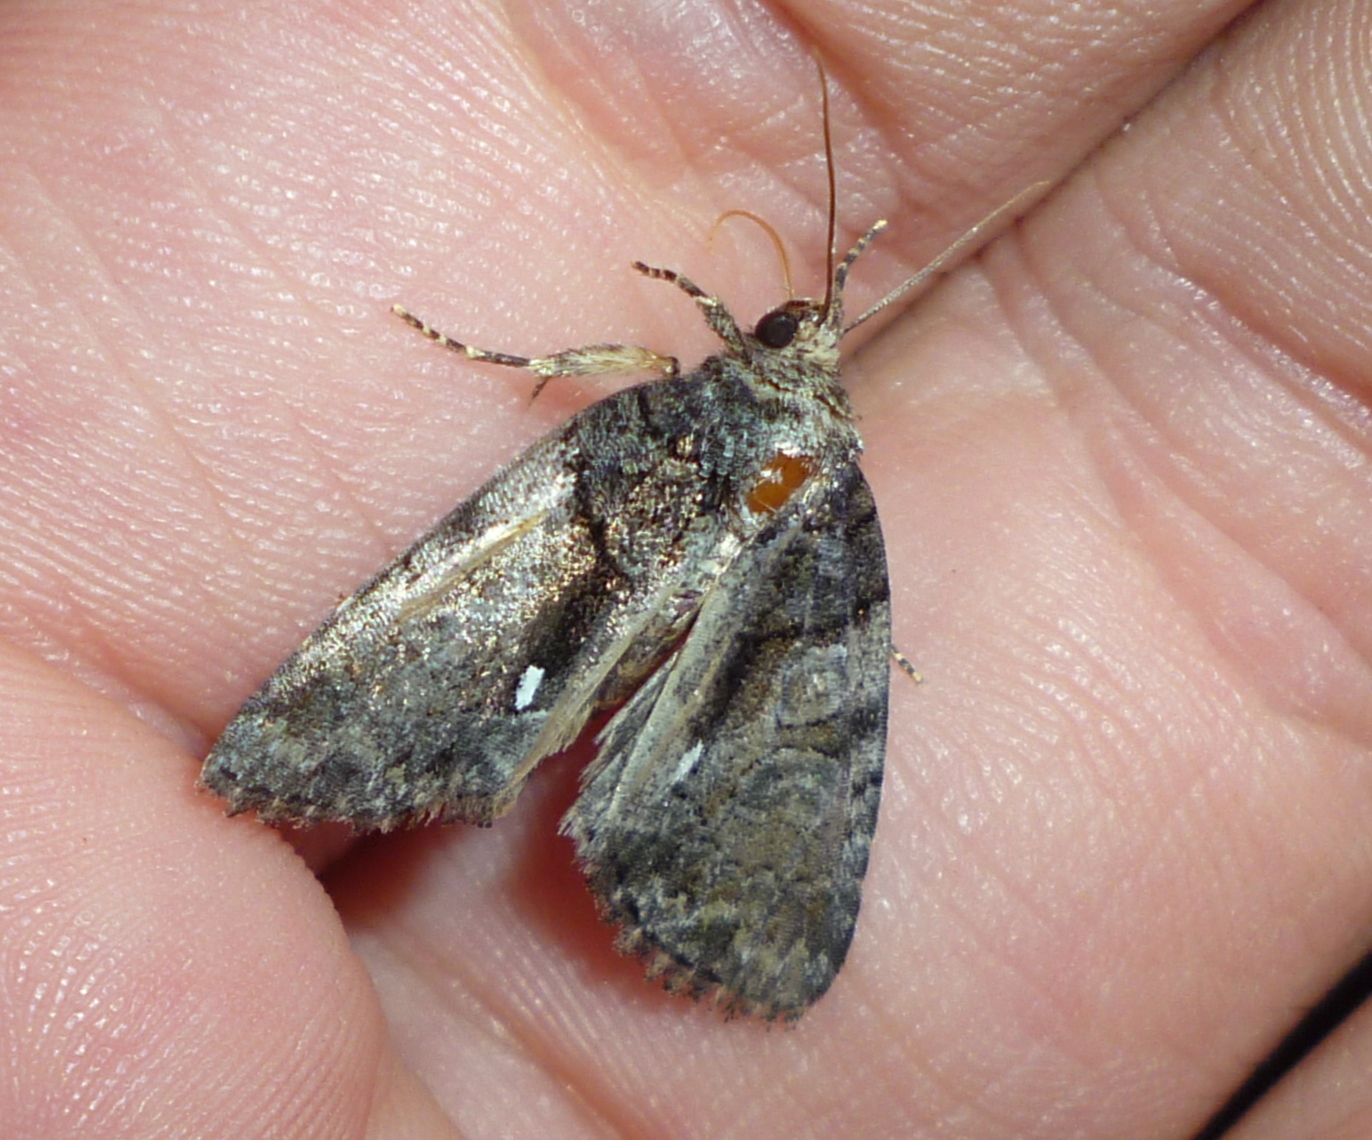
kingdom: Animalia
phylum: Arthropoda
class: Insecta
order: Lepidoptera
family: Noctuidae
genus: Chytonix
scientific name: Chytonix palliatricula
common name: Cloaked marvel
